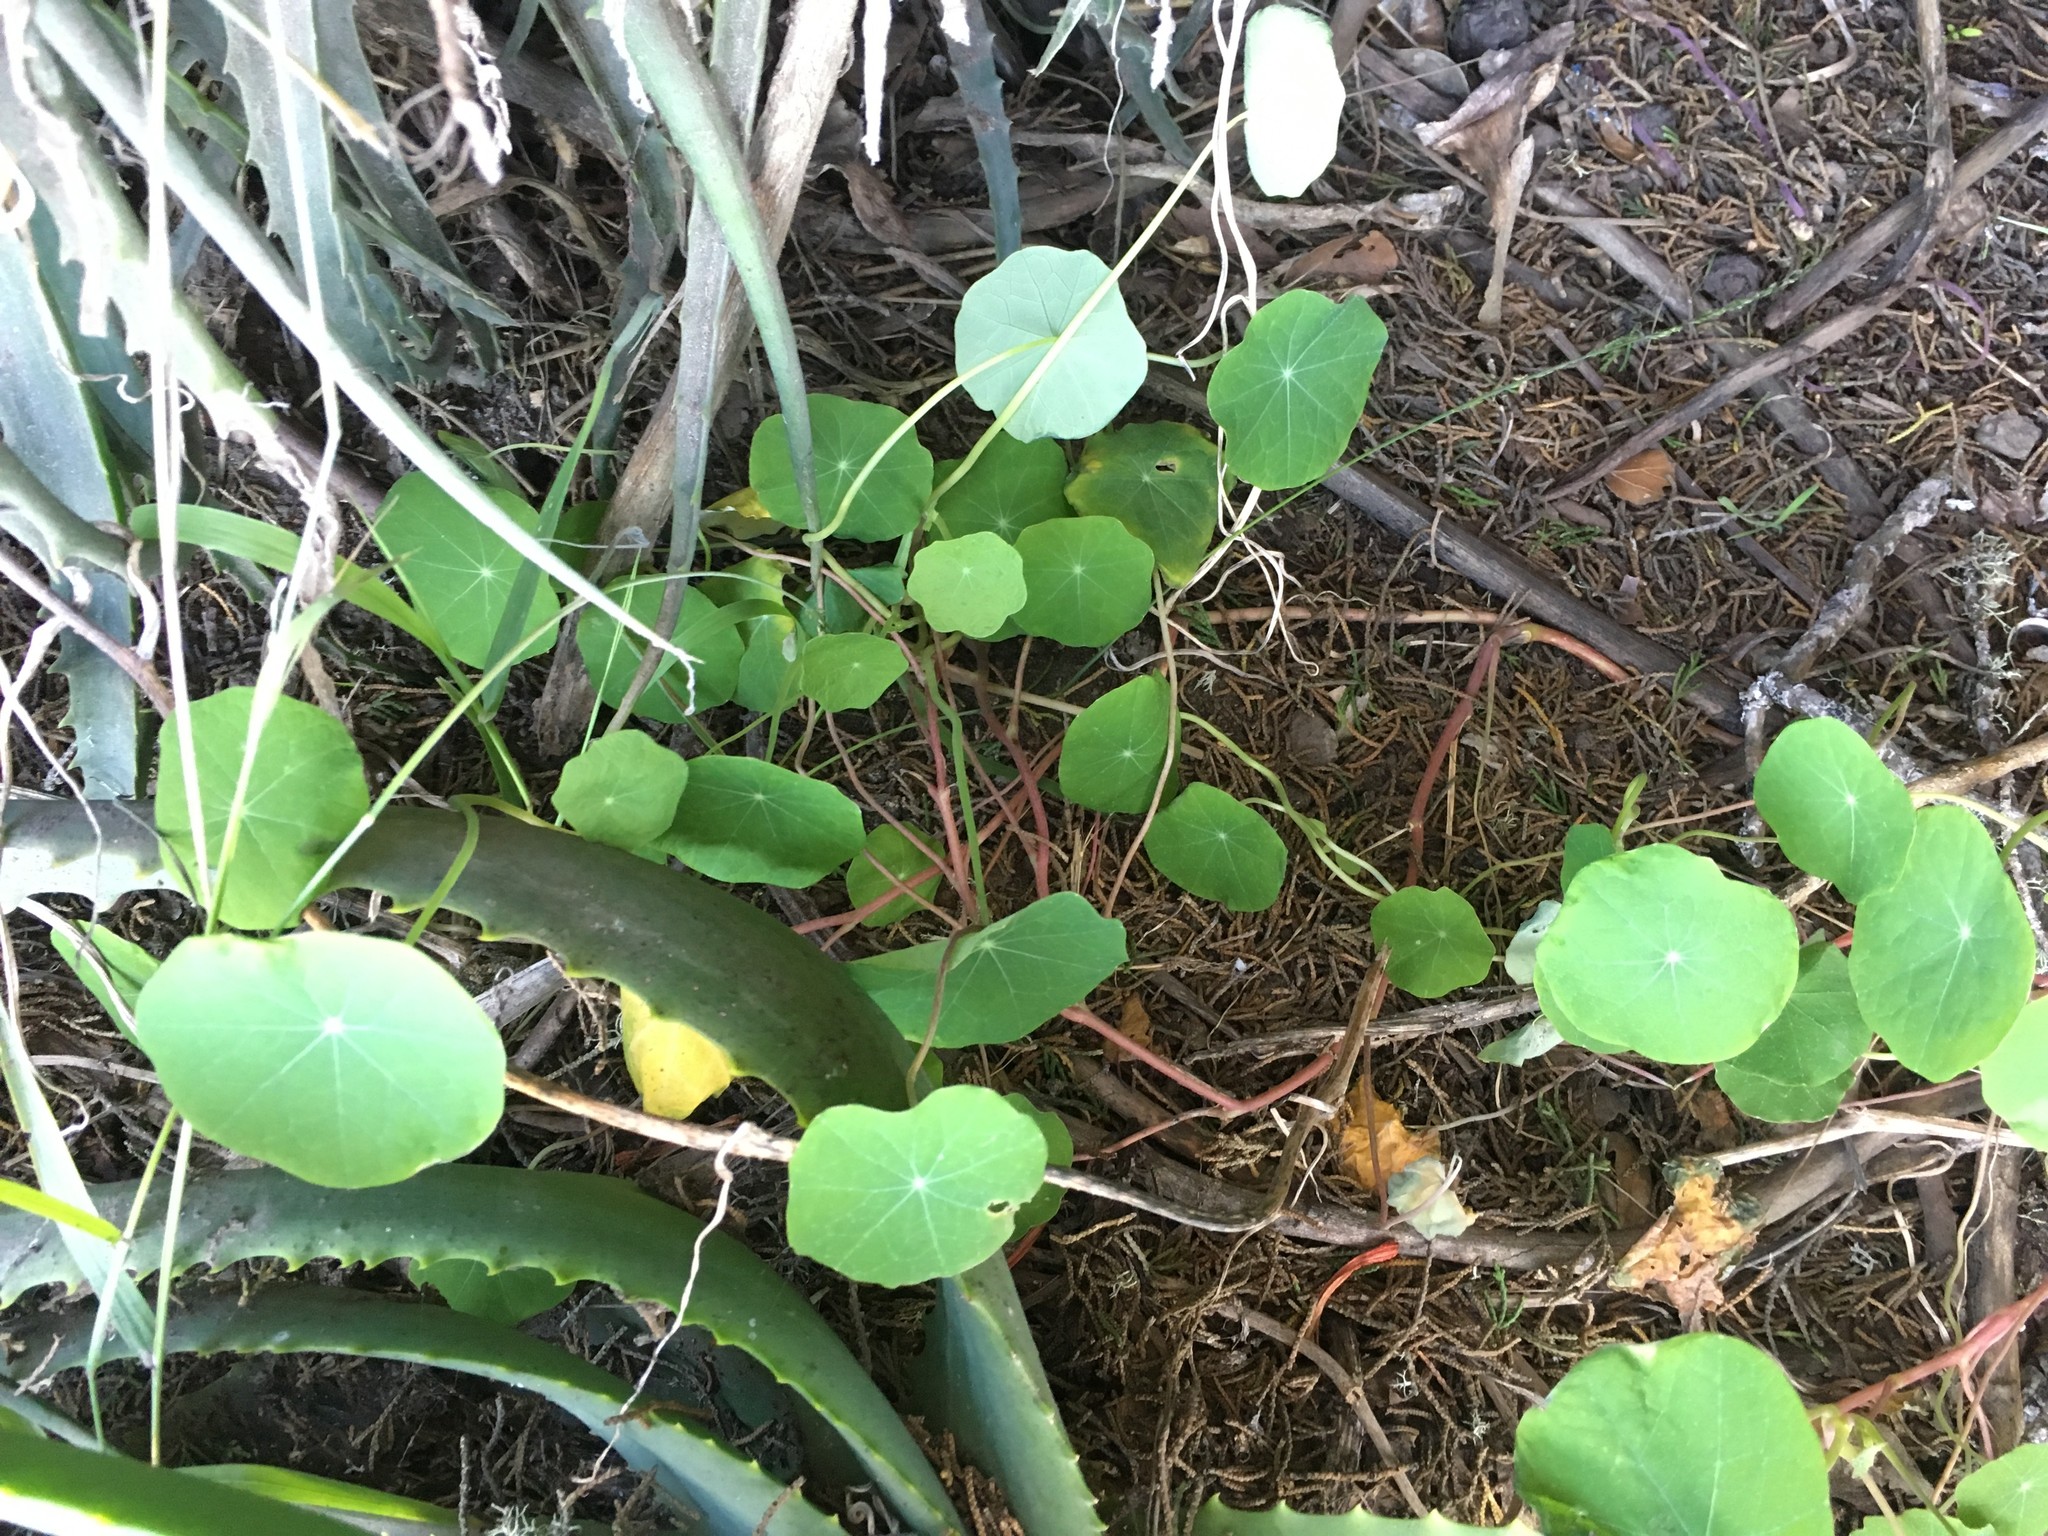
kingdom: Plantae
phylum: Tracheophyta
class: Magnoliopsida
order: Brassicales
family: Tropaeolaceae
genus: Tropaeolum
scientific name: Tropaeolum majus
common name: Nasturtium
